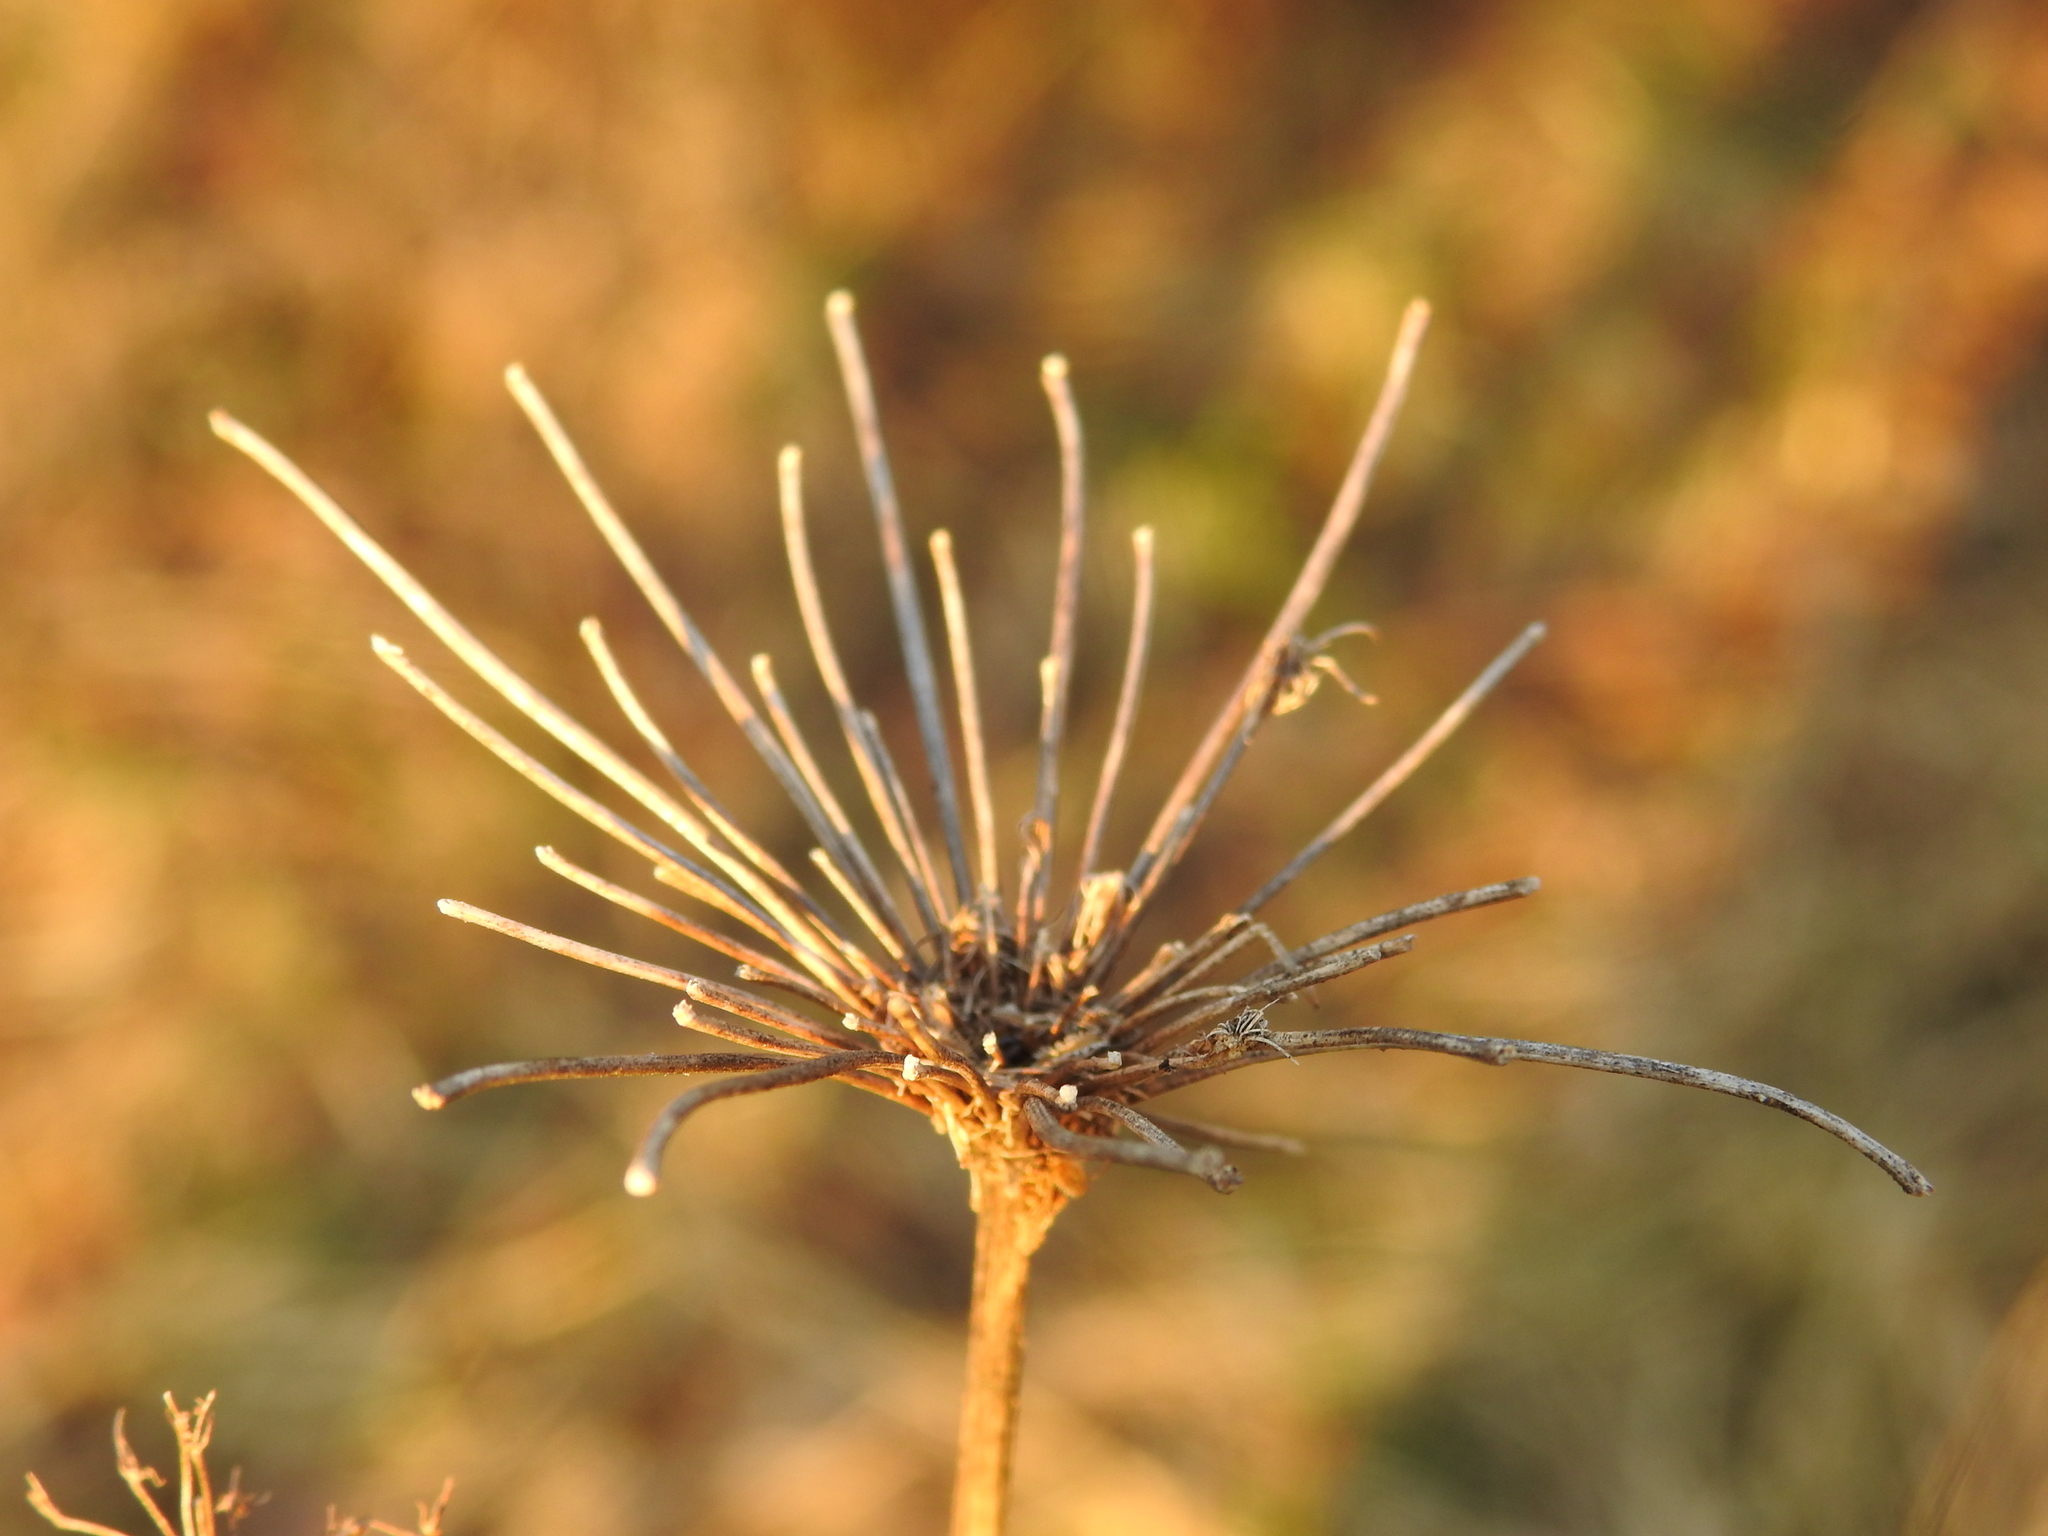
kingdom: Plantae
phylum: Tracheophyta
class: Magnoliopsida
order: Apiales
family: Apiaceae
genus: Daucus
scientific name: Daucus carota
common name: Wild carrot
